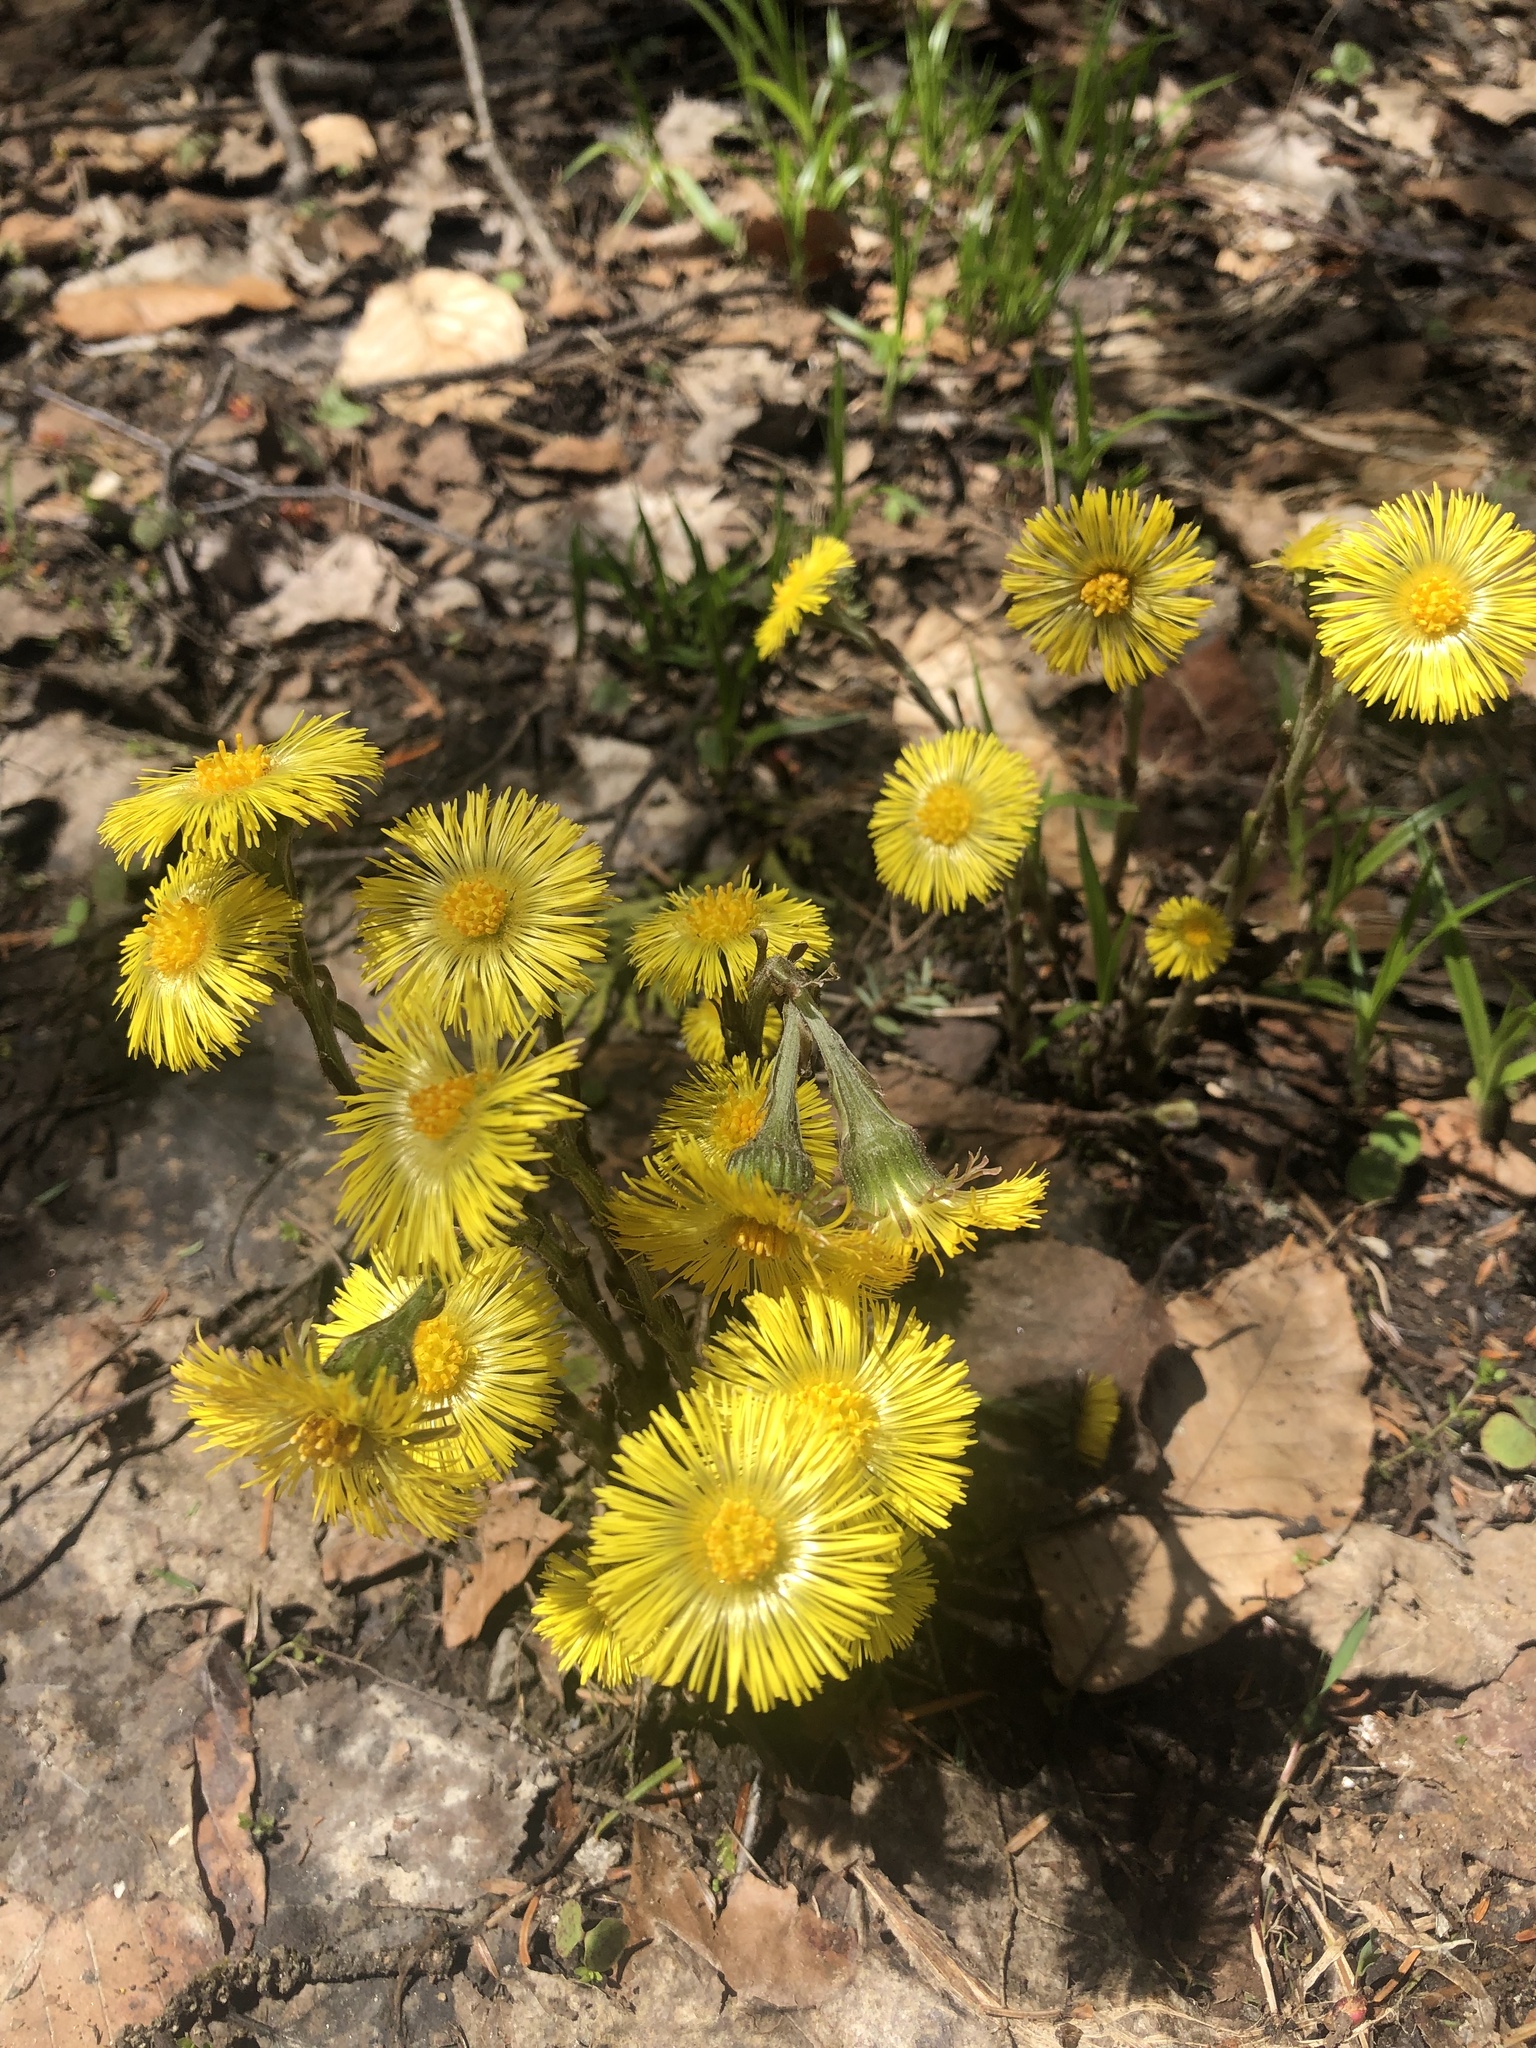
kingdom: Plantae
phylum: Tracheophyta
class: Magnoliopsida
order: Asterales
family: Asteraceae
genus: Tussilago
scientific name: Tussilago farfara
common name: Coltsfoot
